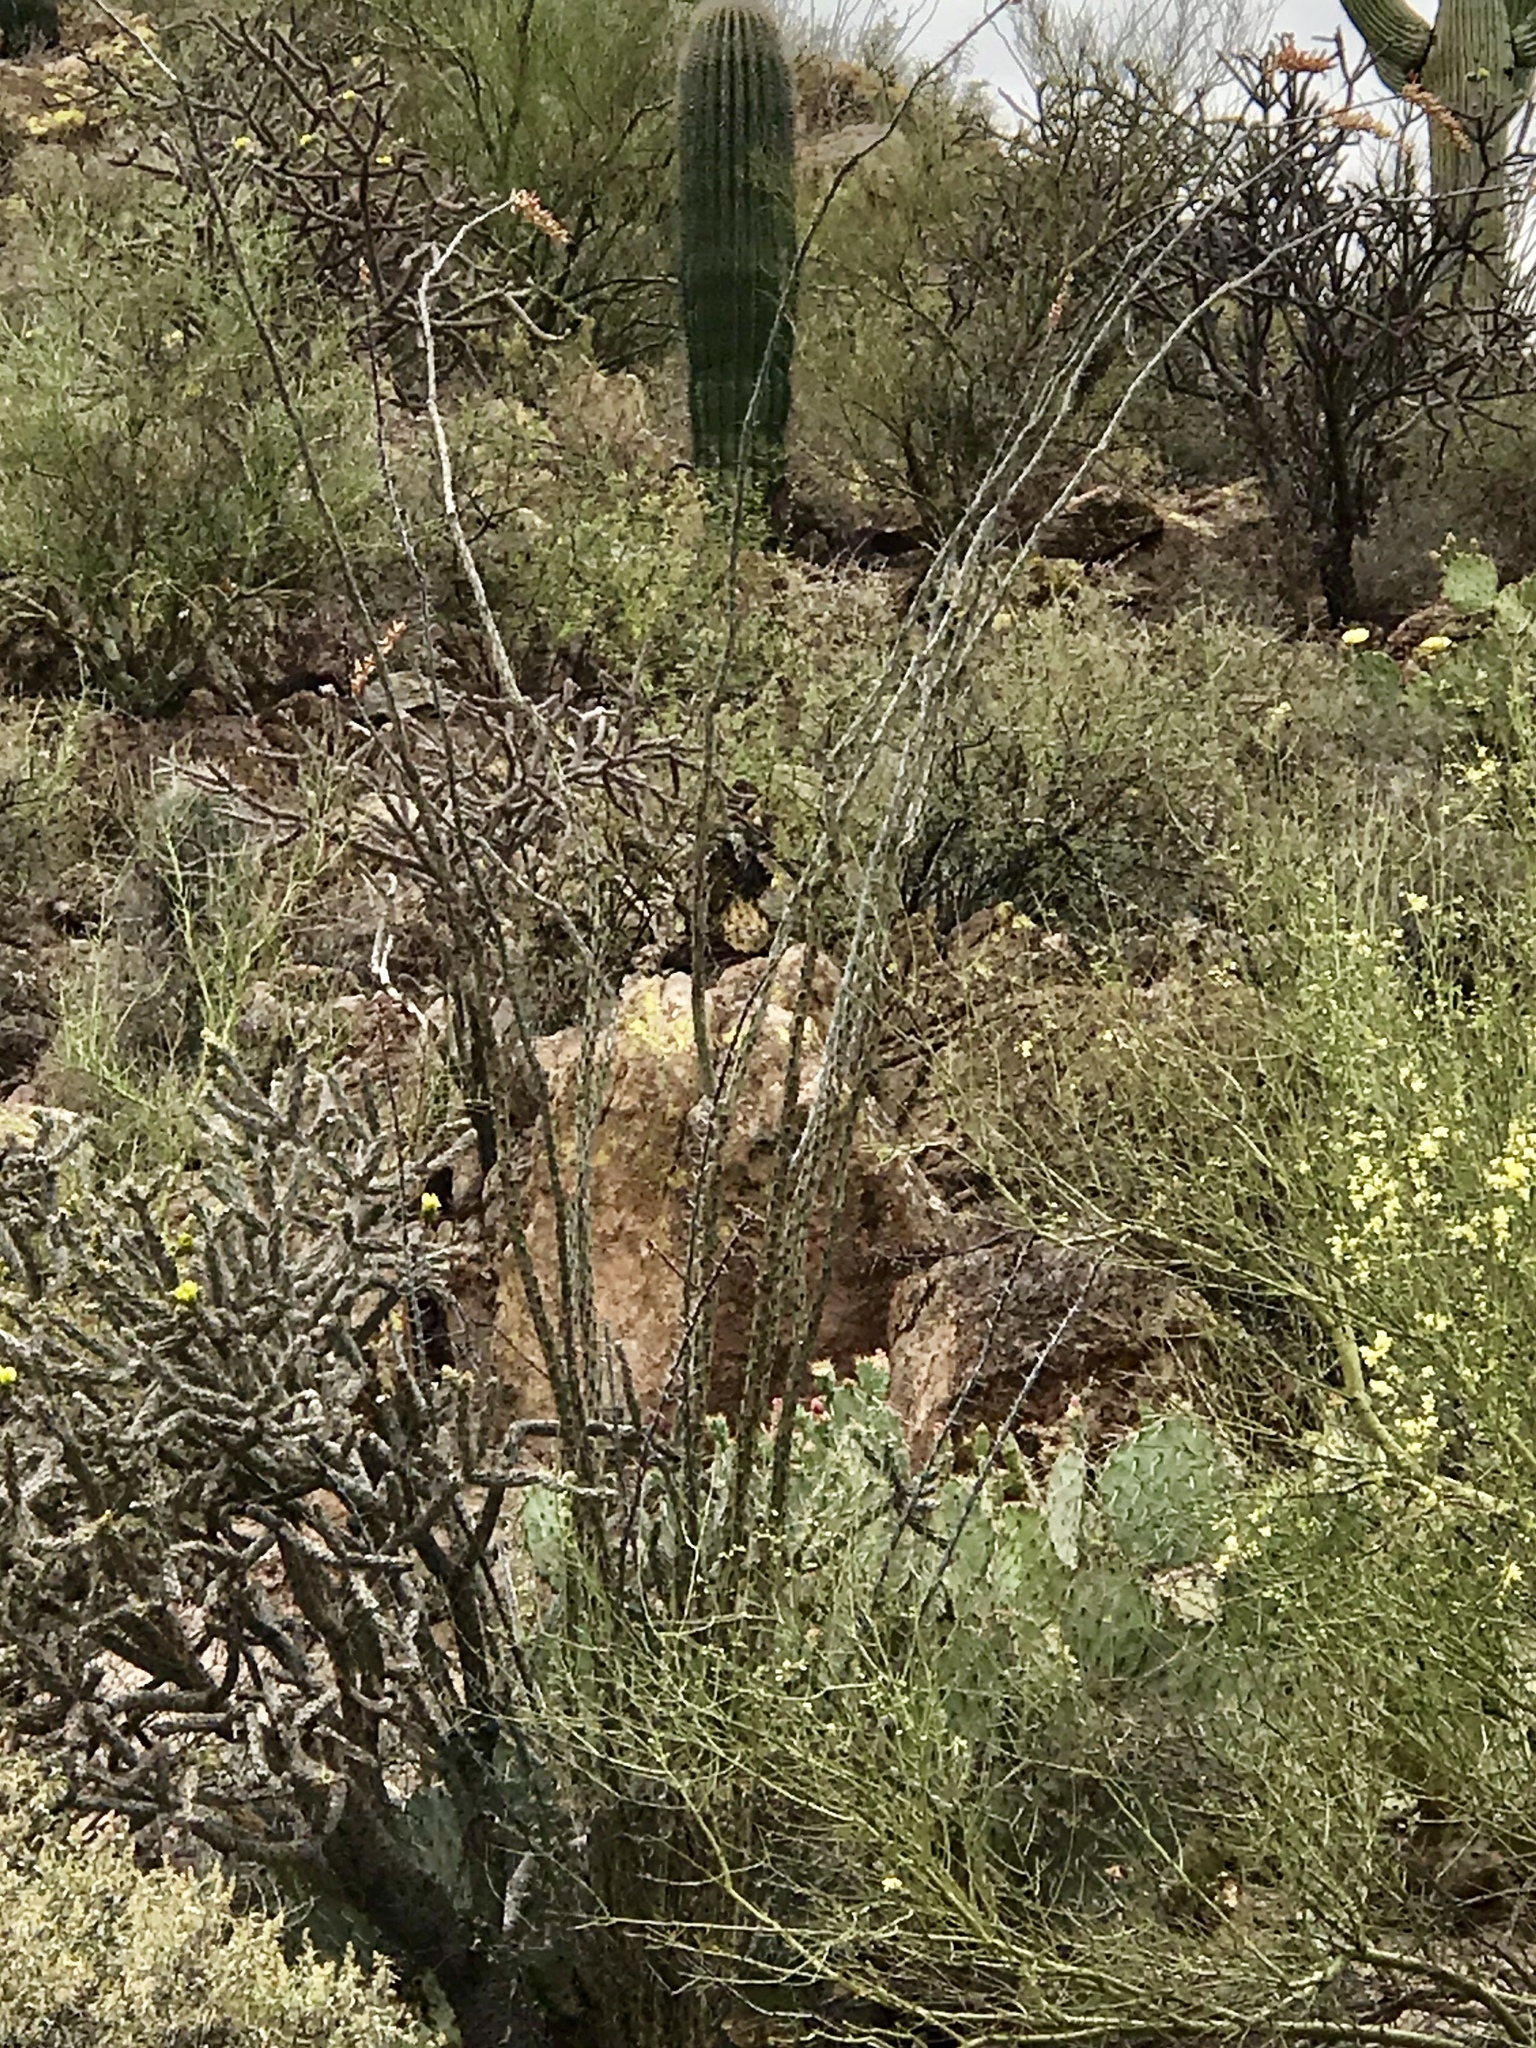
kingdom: Plantae
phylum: Tracheophyta
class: Magnoliopsida
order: Ericales
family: Fouquieriaceae
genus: Fouquieria
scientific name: Fouquieria splendens
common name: Vine-cactus
